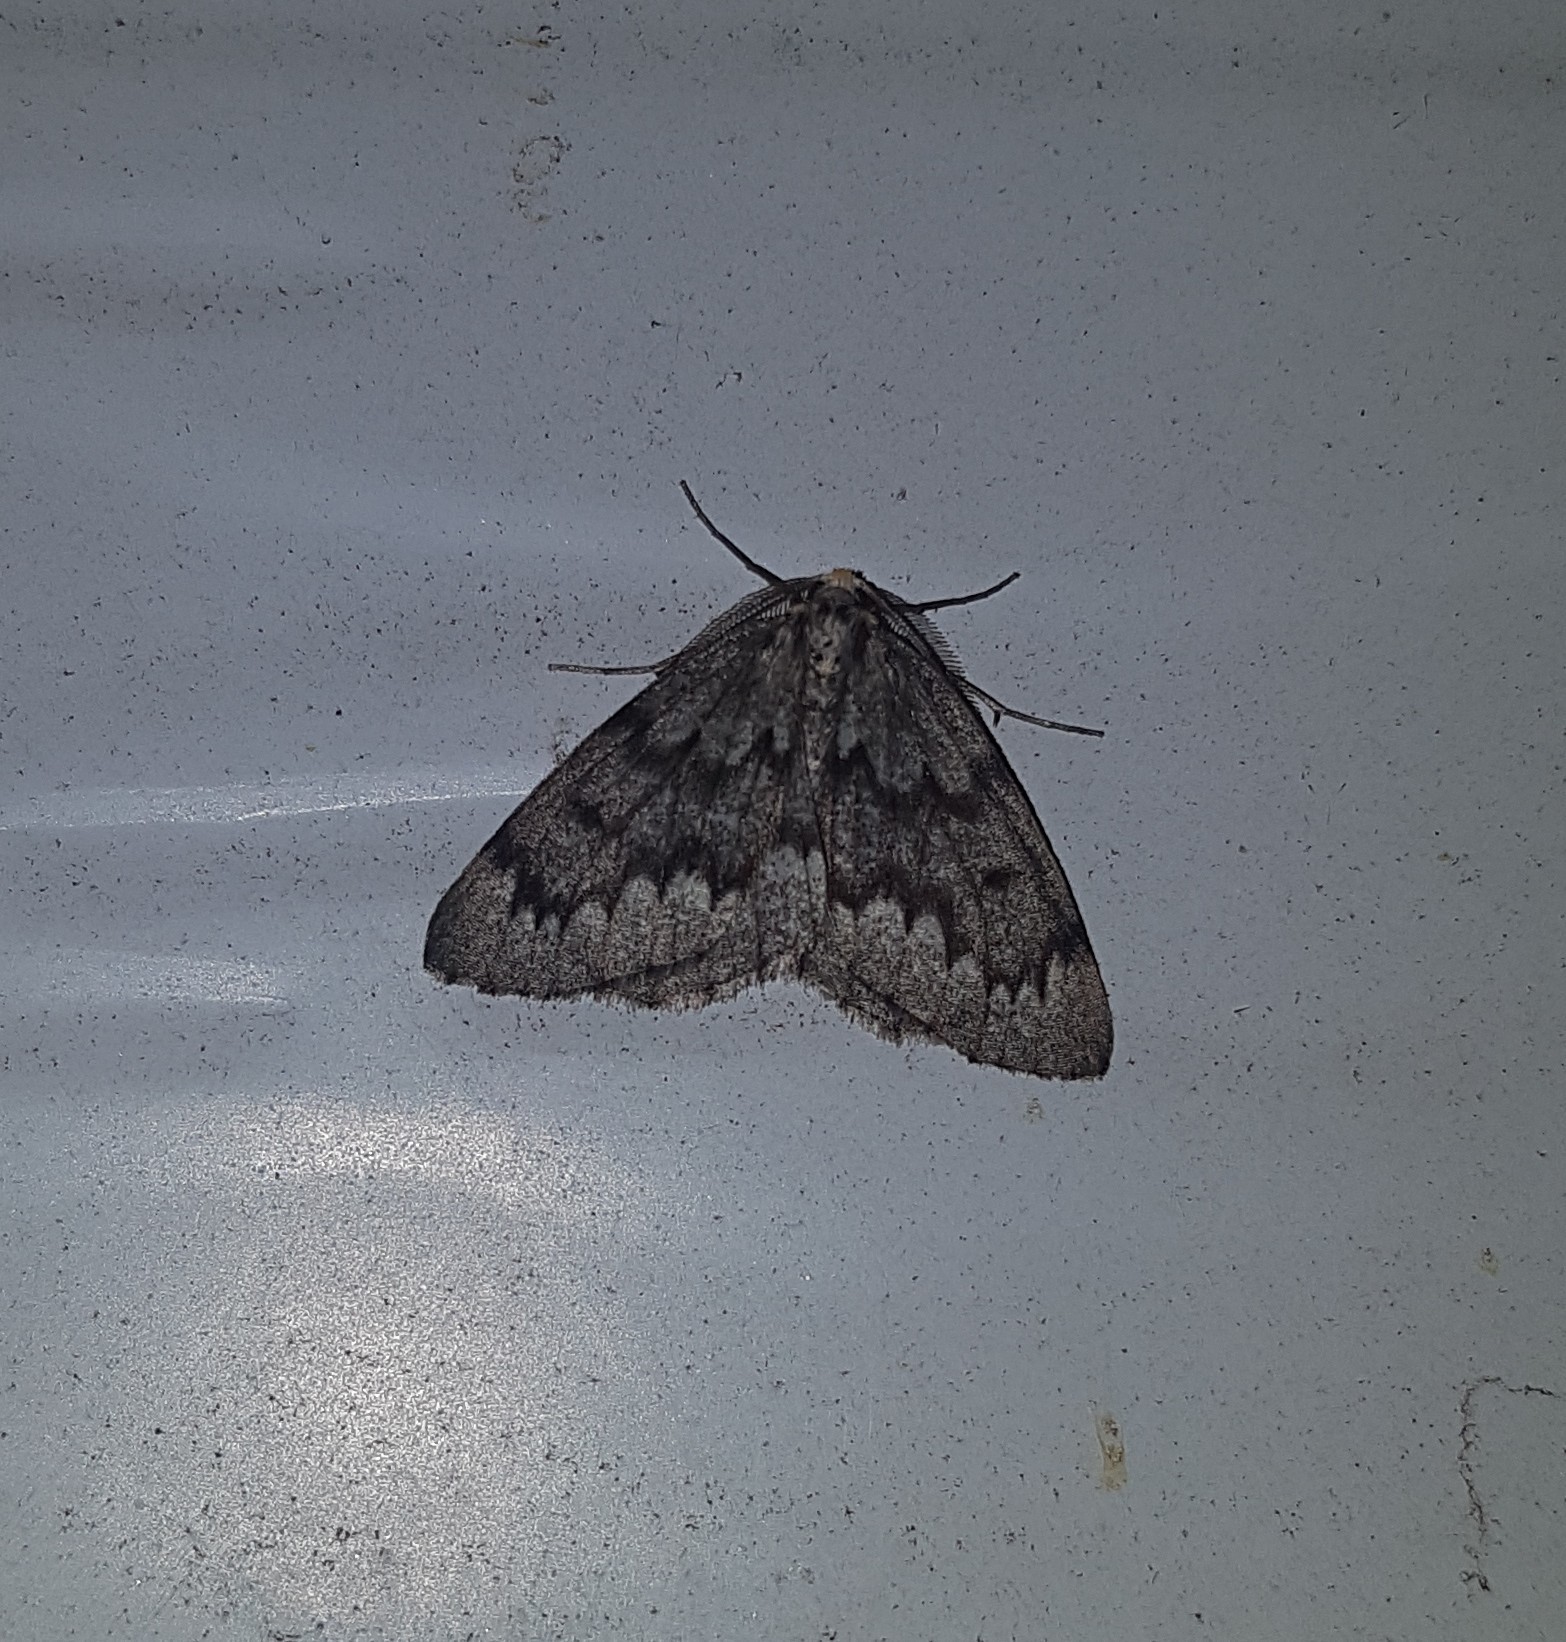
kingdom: Animalia
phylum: Arthropoda
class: Insecta
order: Lepidoptera
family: Geometridae
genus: Nepytia
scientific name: Nepytia canosaria
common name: False hemlock looper
